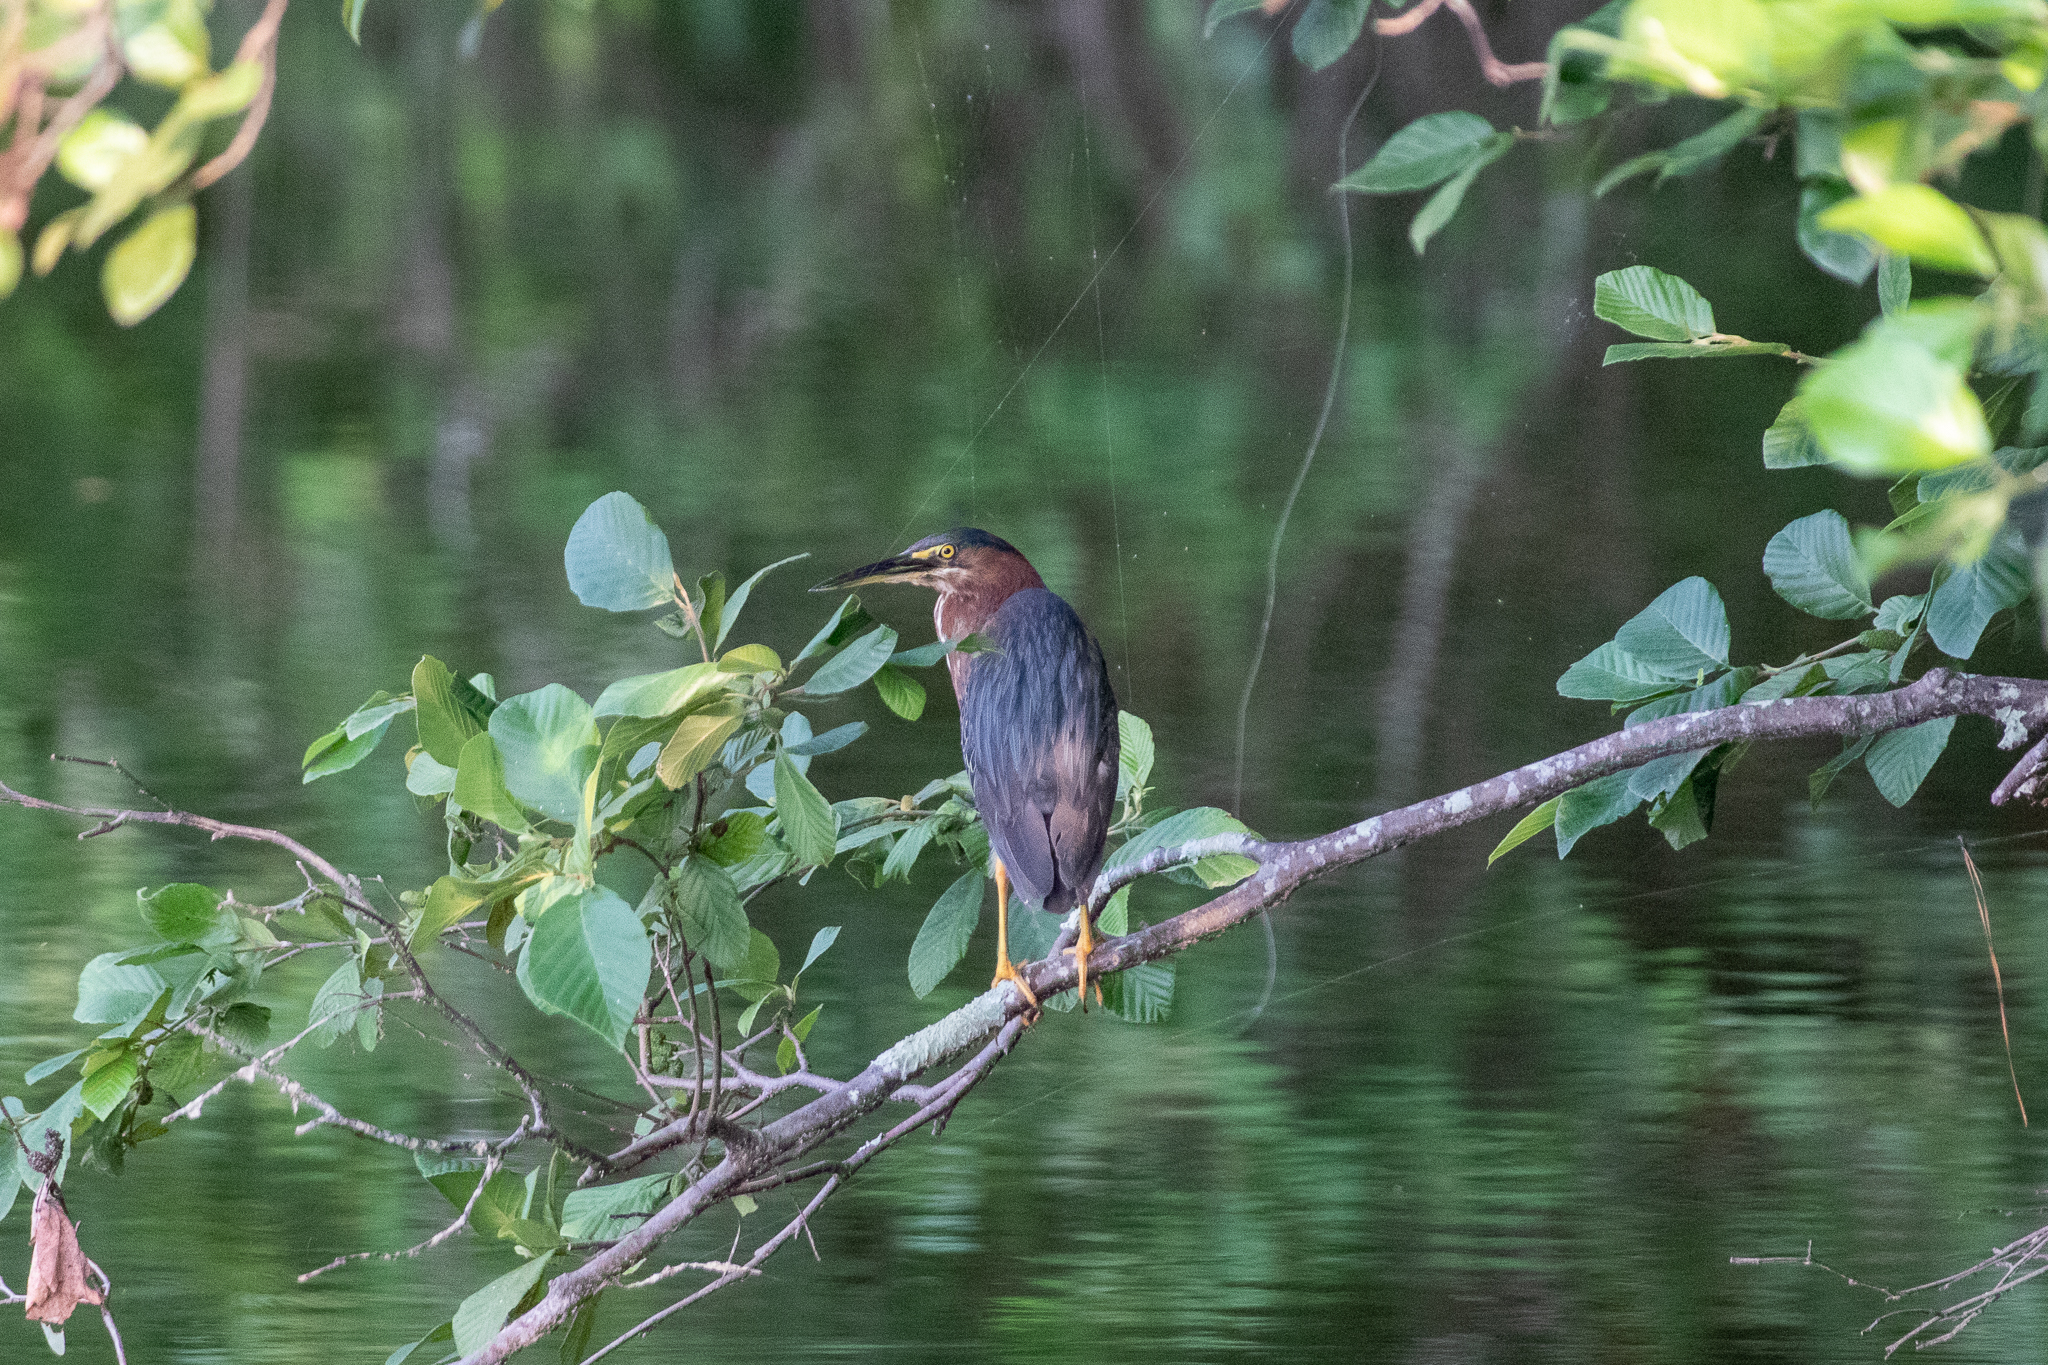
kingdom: Animalia
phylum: Chordata
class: Aves
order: Pelecaniformes
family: Ardeidae
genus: Butorides
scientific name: Butorides virescens
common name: Green heron
